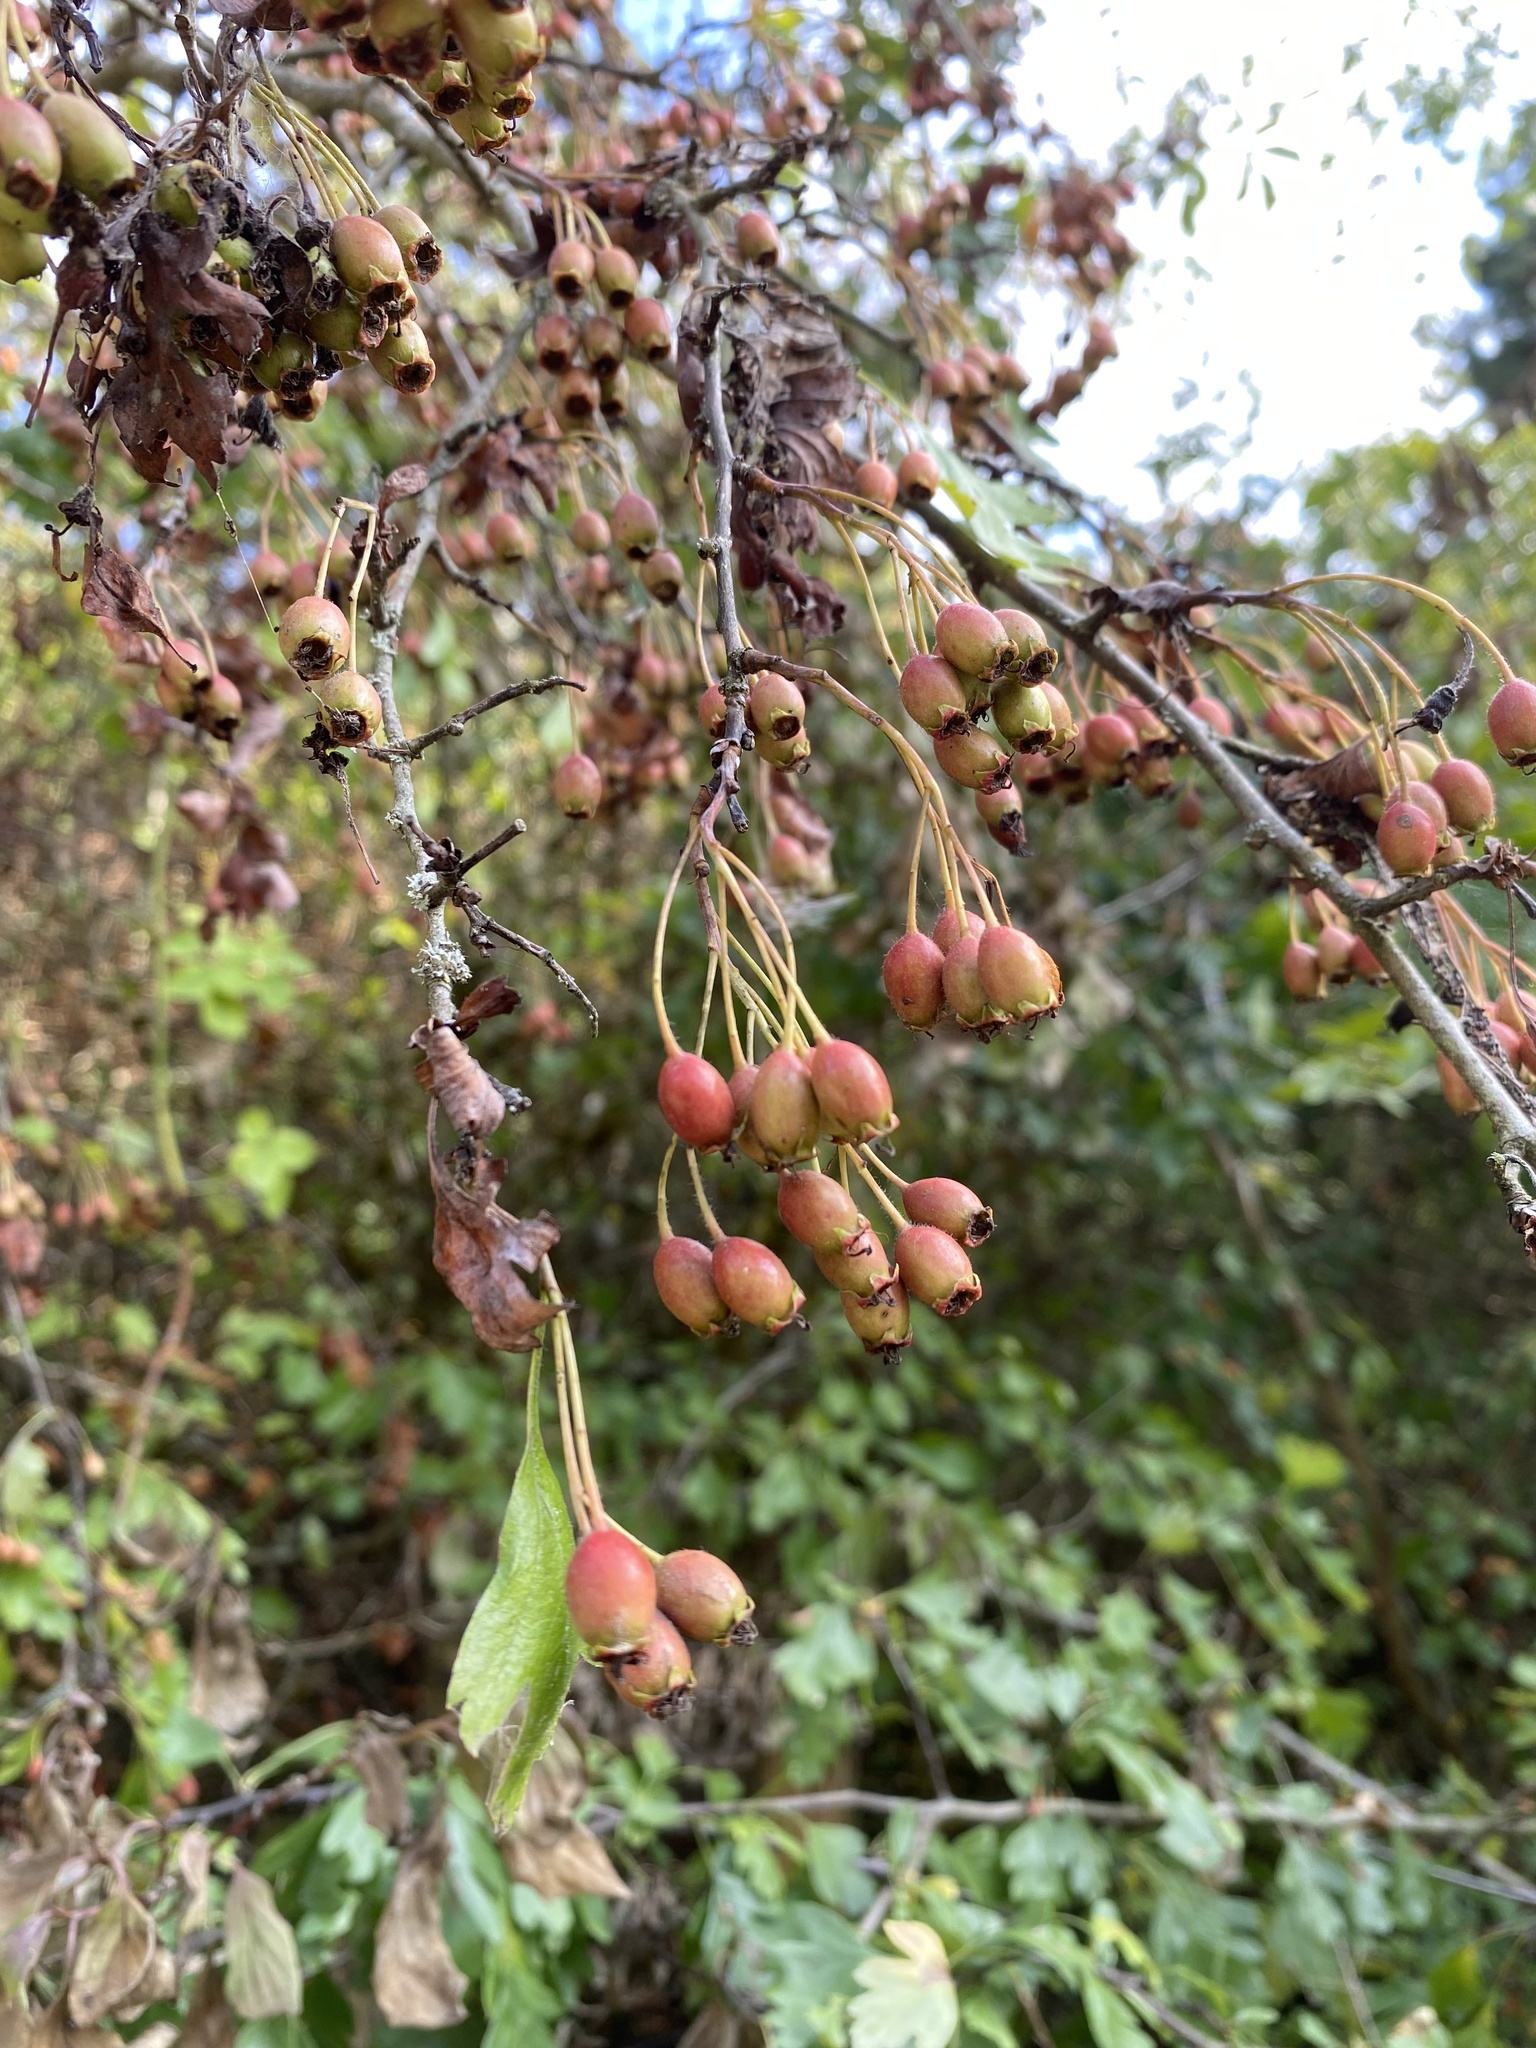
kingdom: Plantae
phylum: Tracheophyta
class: Magnoliopsida
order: Rosales
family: Rosaceae
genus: Crataegus
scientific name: Crataegus monogyna
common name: Hawthorn
